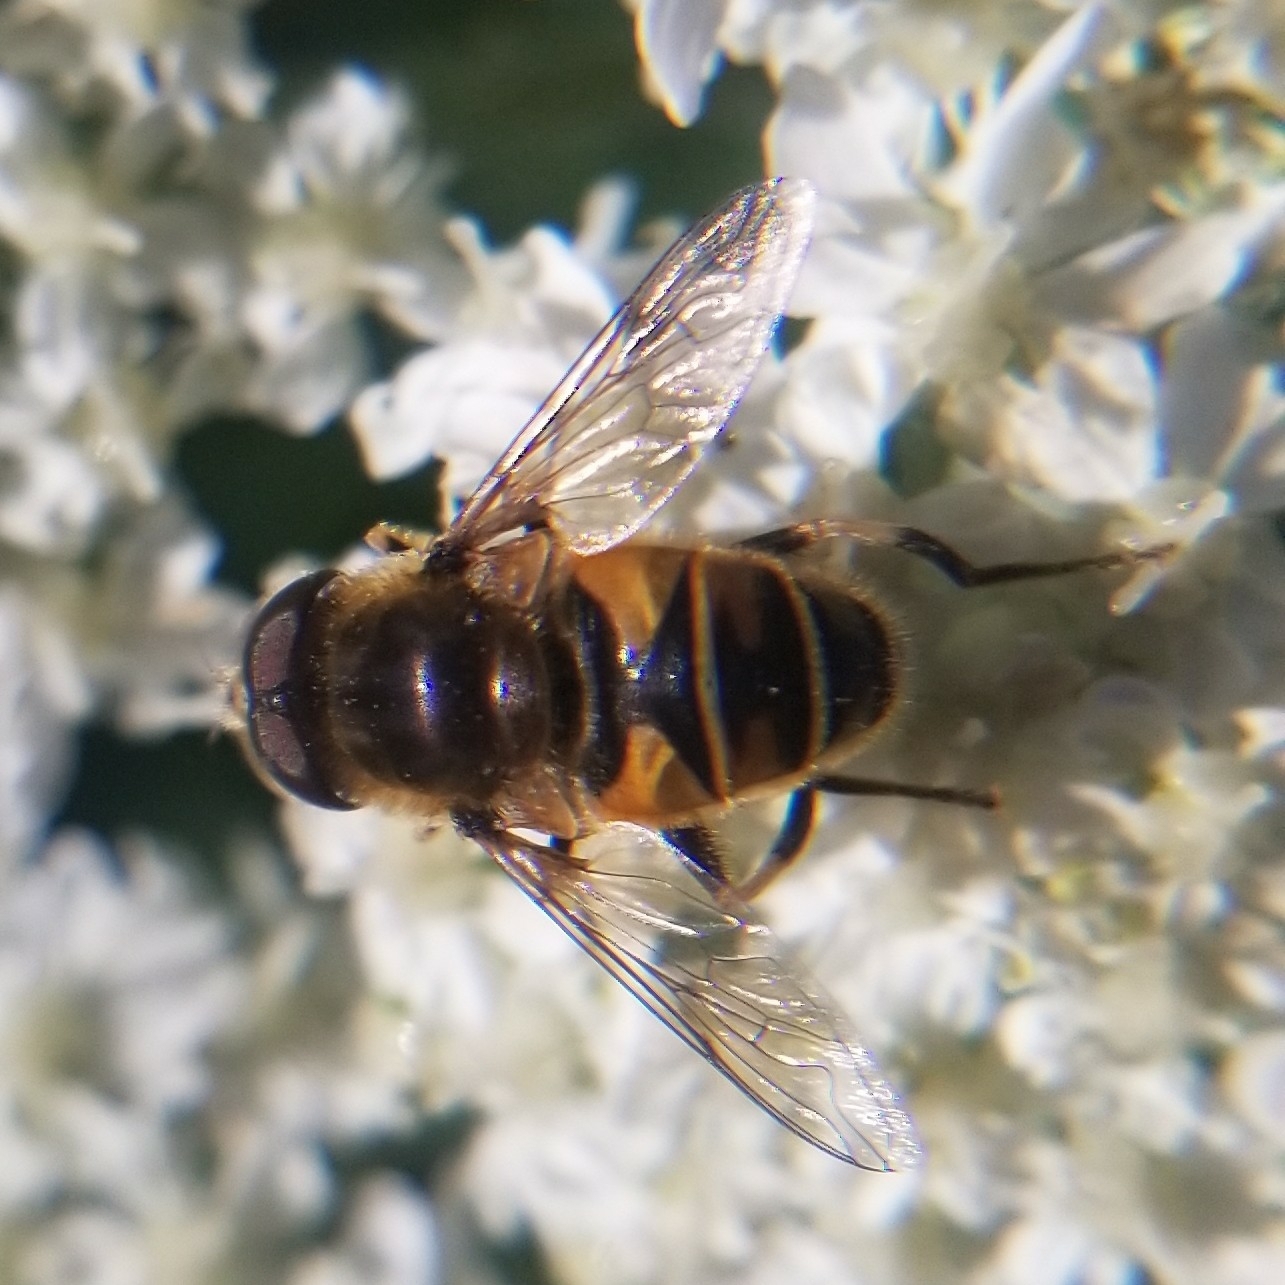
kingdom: Animalia
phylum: Arthropoda
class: Insecta
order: Diptera
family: Syrphidae
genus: Eristalis
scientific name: Eristalis nemorum
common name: Orange-spined drone fly
